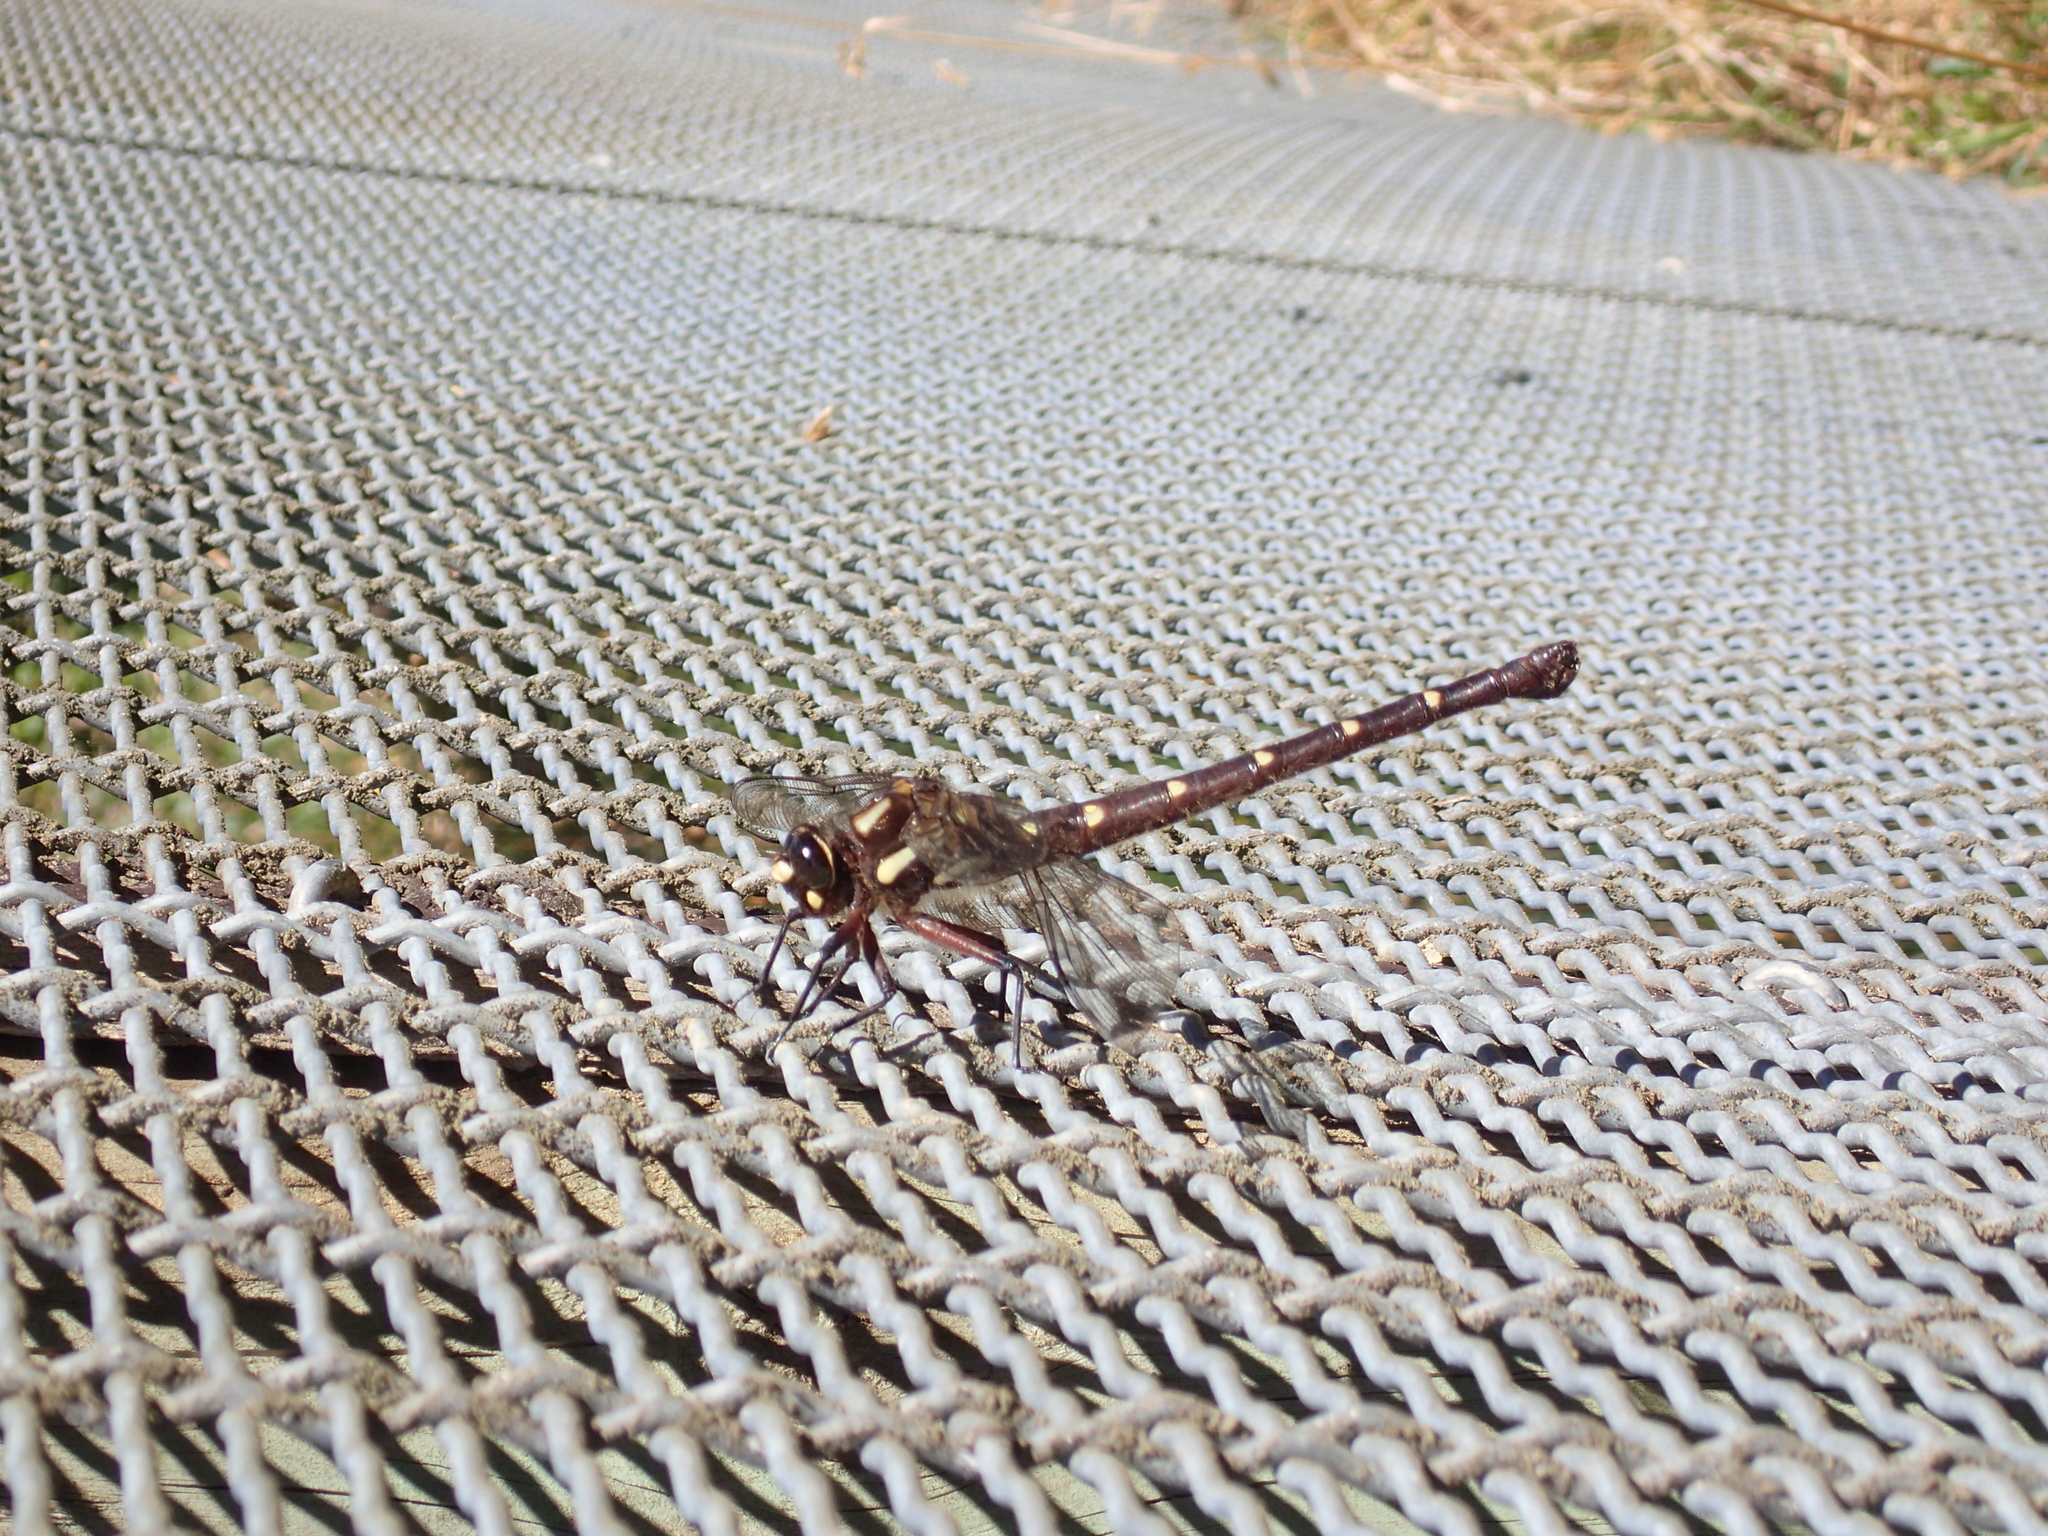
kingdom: Animalia
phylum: Arthropoda
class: Insecta
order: Odonata
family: Petaluridae
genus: Uropetala
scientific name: Uropetala carovei
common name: Bush giant dragonfly
